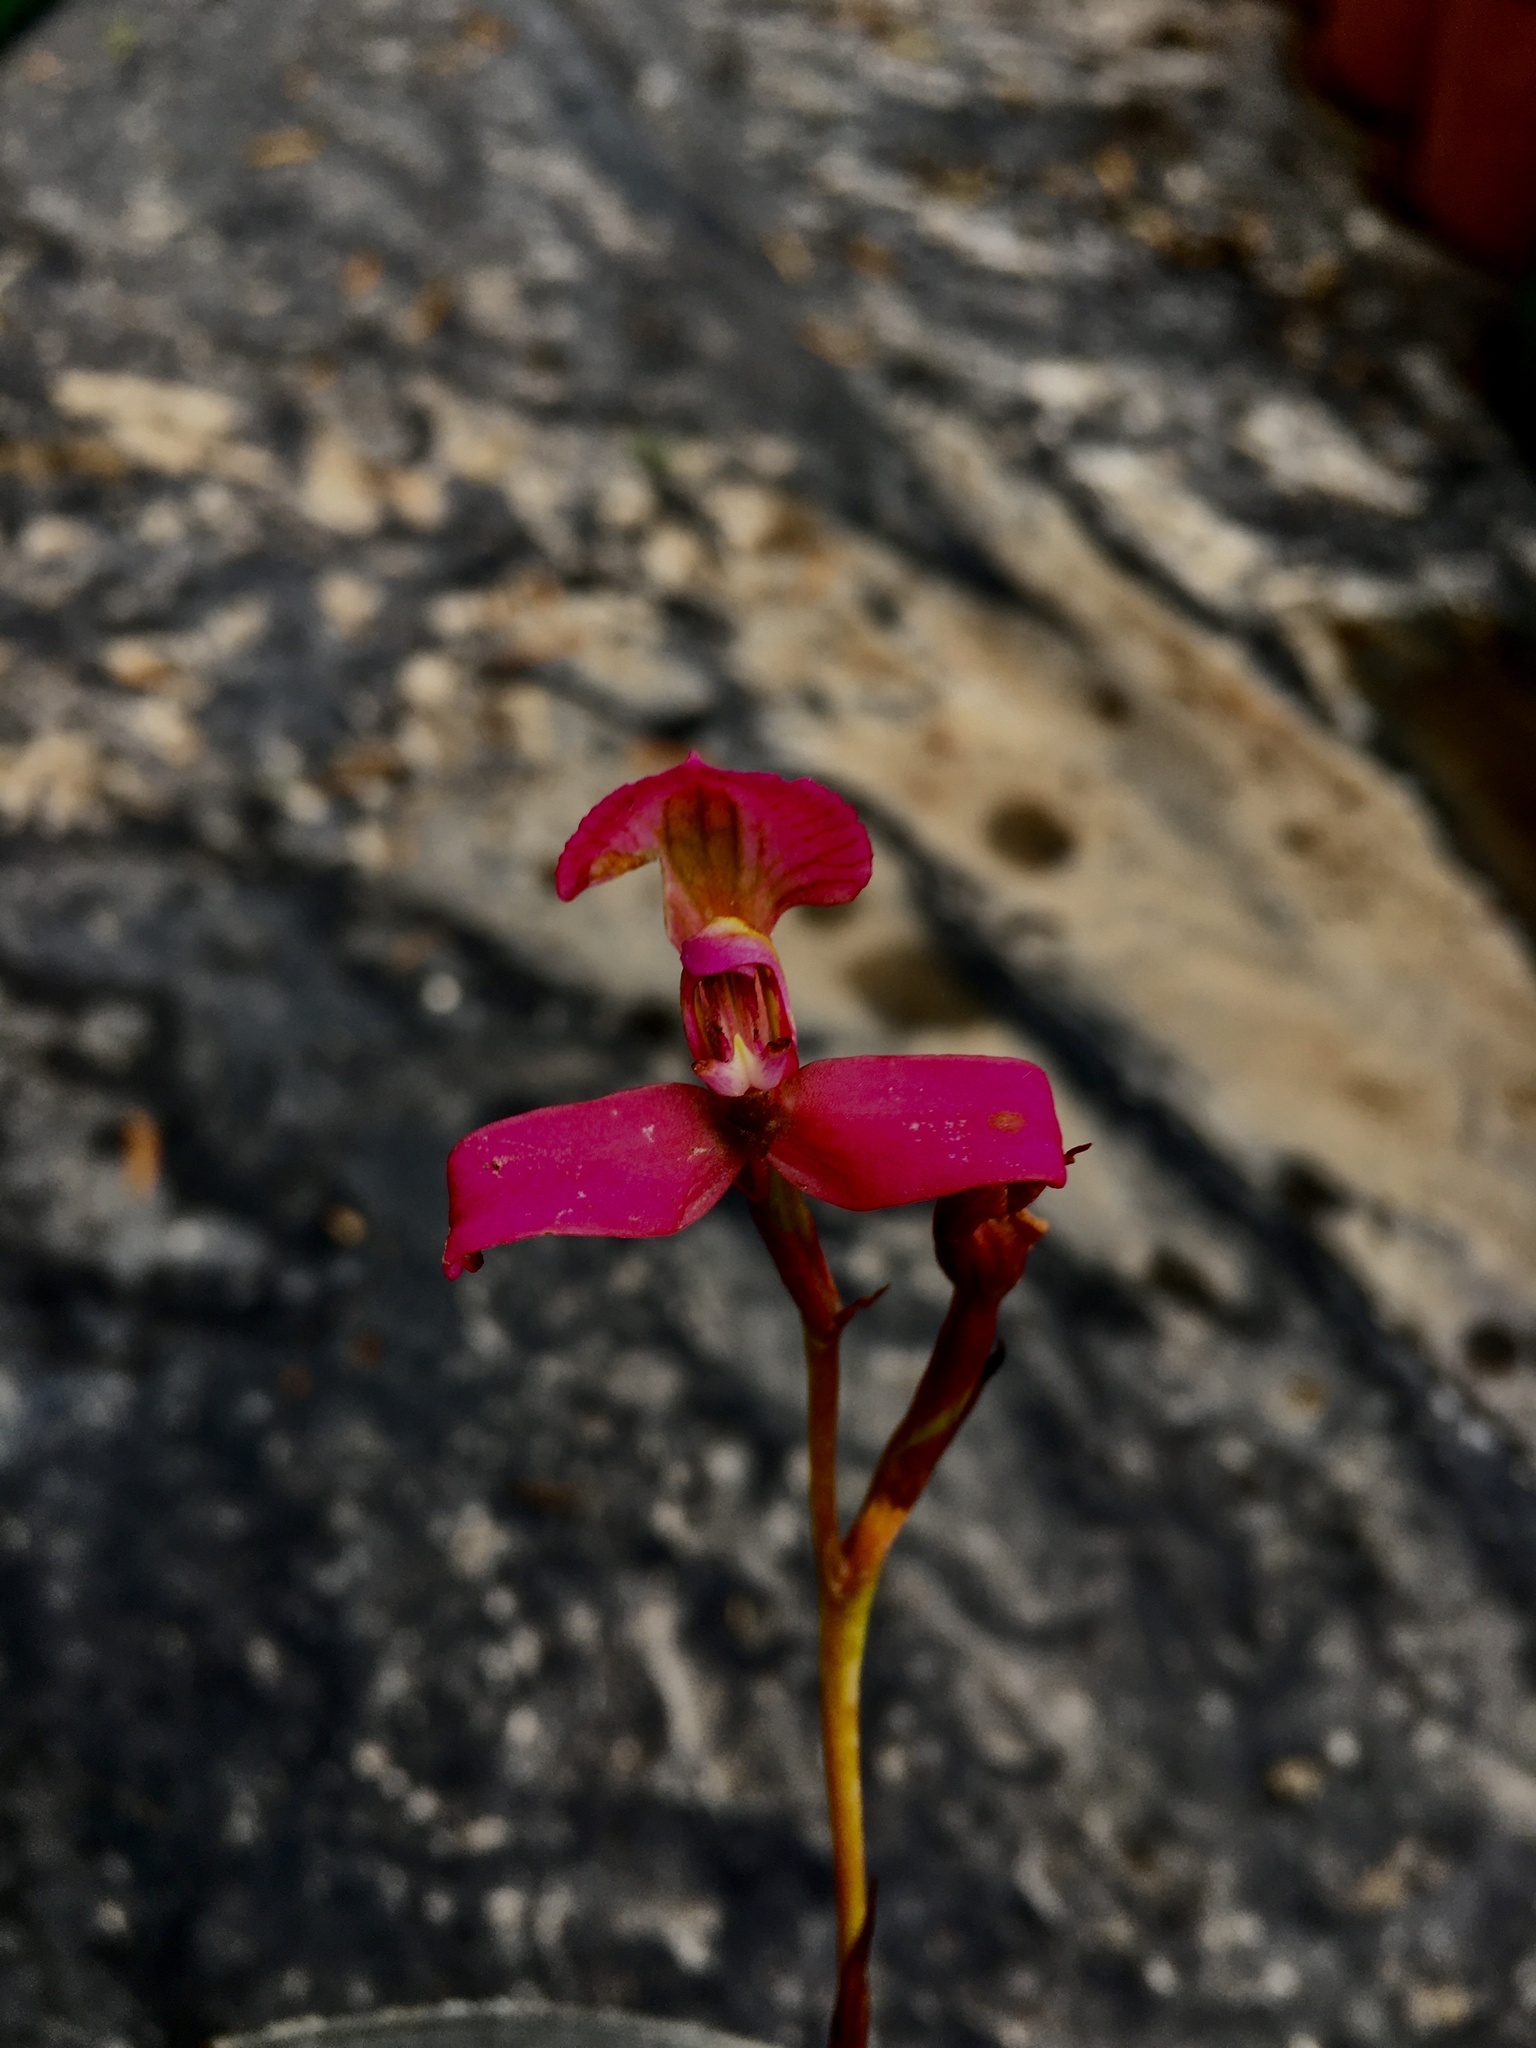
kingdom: Plantae
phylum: Tracheophyta
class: Liliopsida
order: Asparagales
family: Orchidaceae
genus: Disa
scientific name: Disa filicornis
